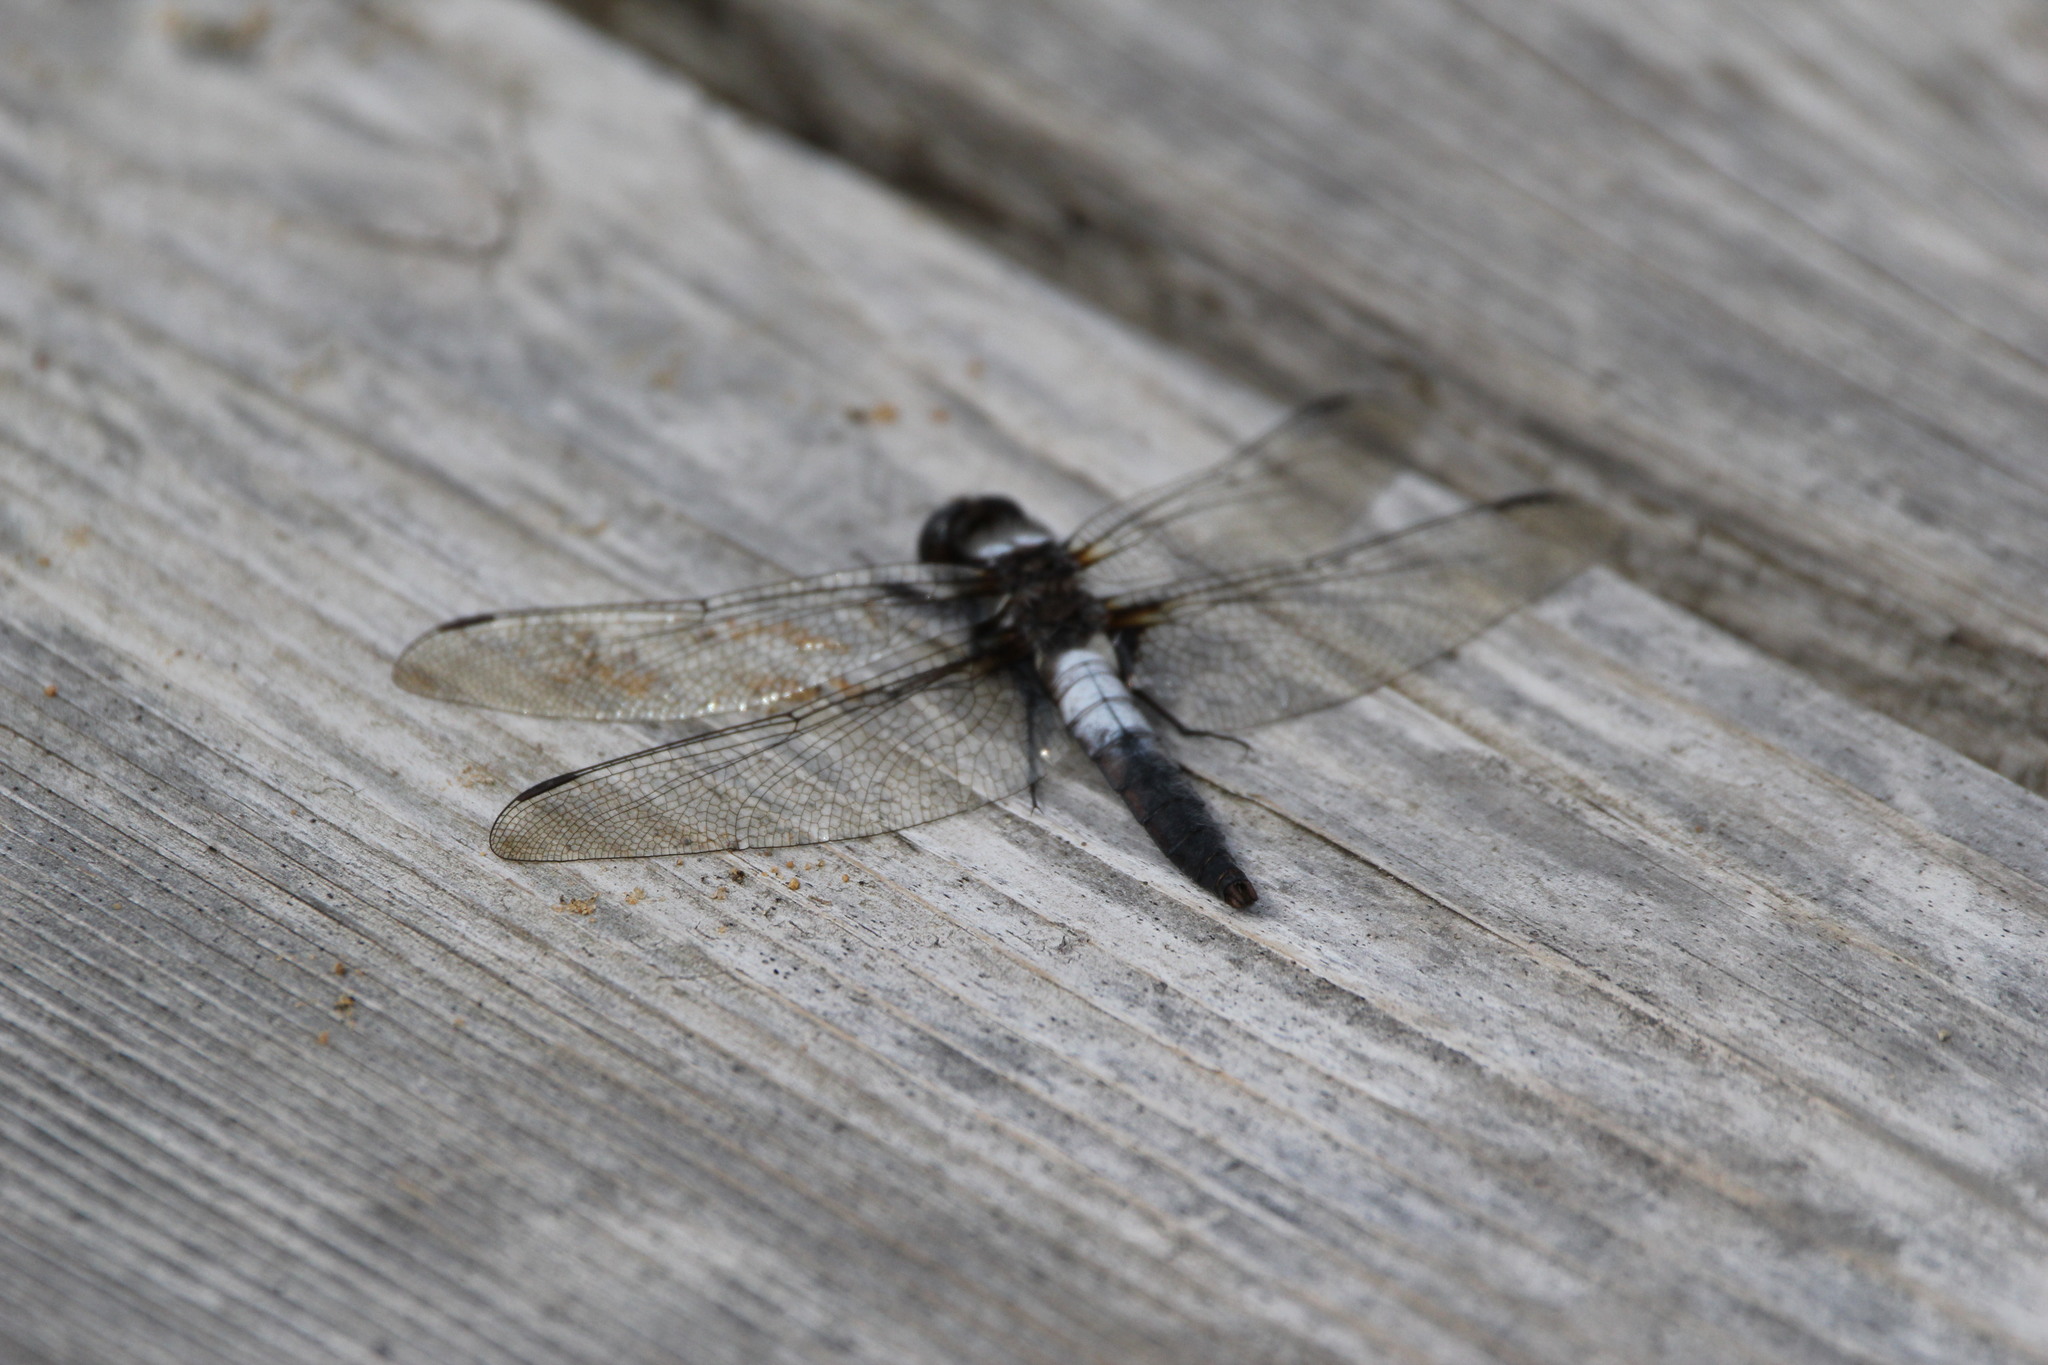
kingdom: Animalia
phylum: Arthropoda
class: Insecta
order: Odonata
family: Libellulidae
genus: Ladona
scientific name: Ladona julia
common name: Chalk-fronted corporal
